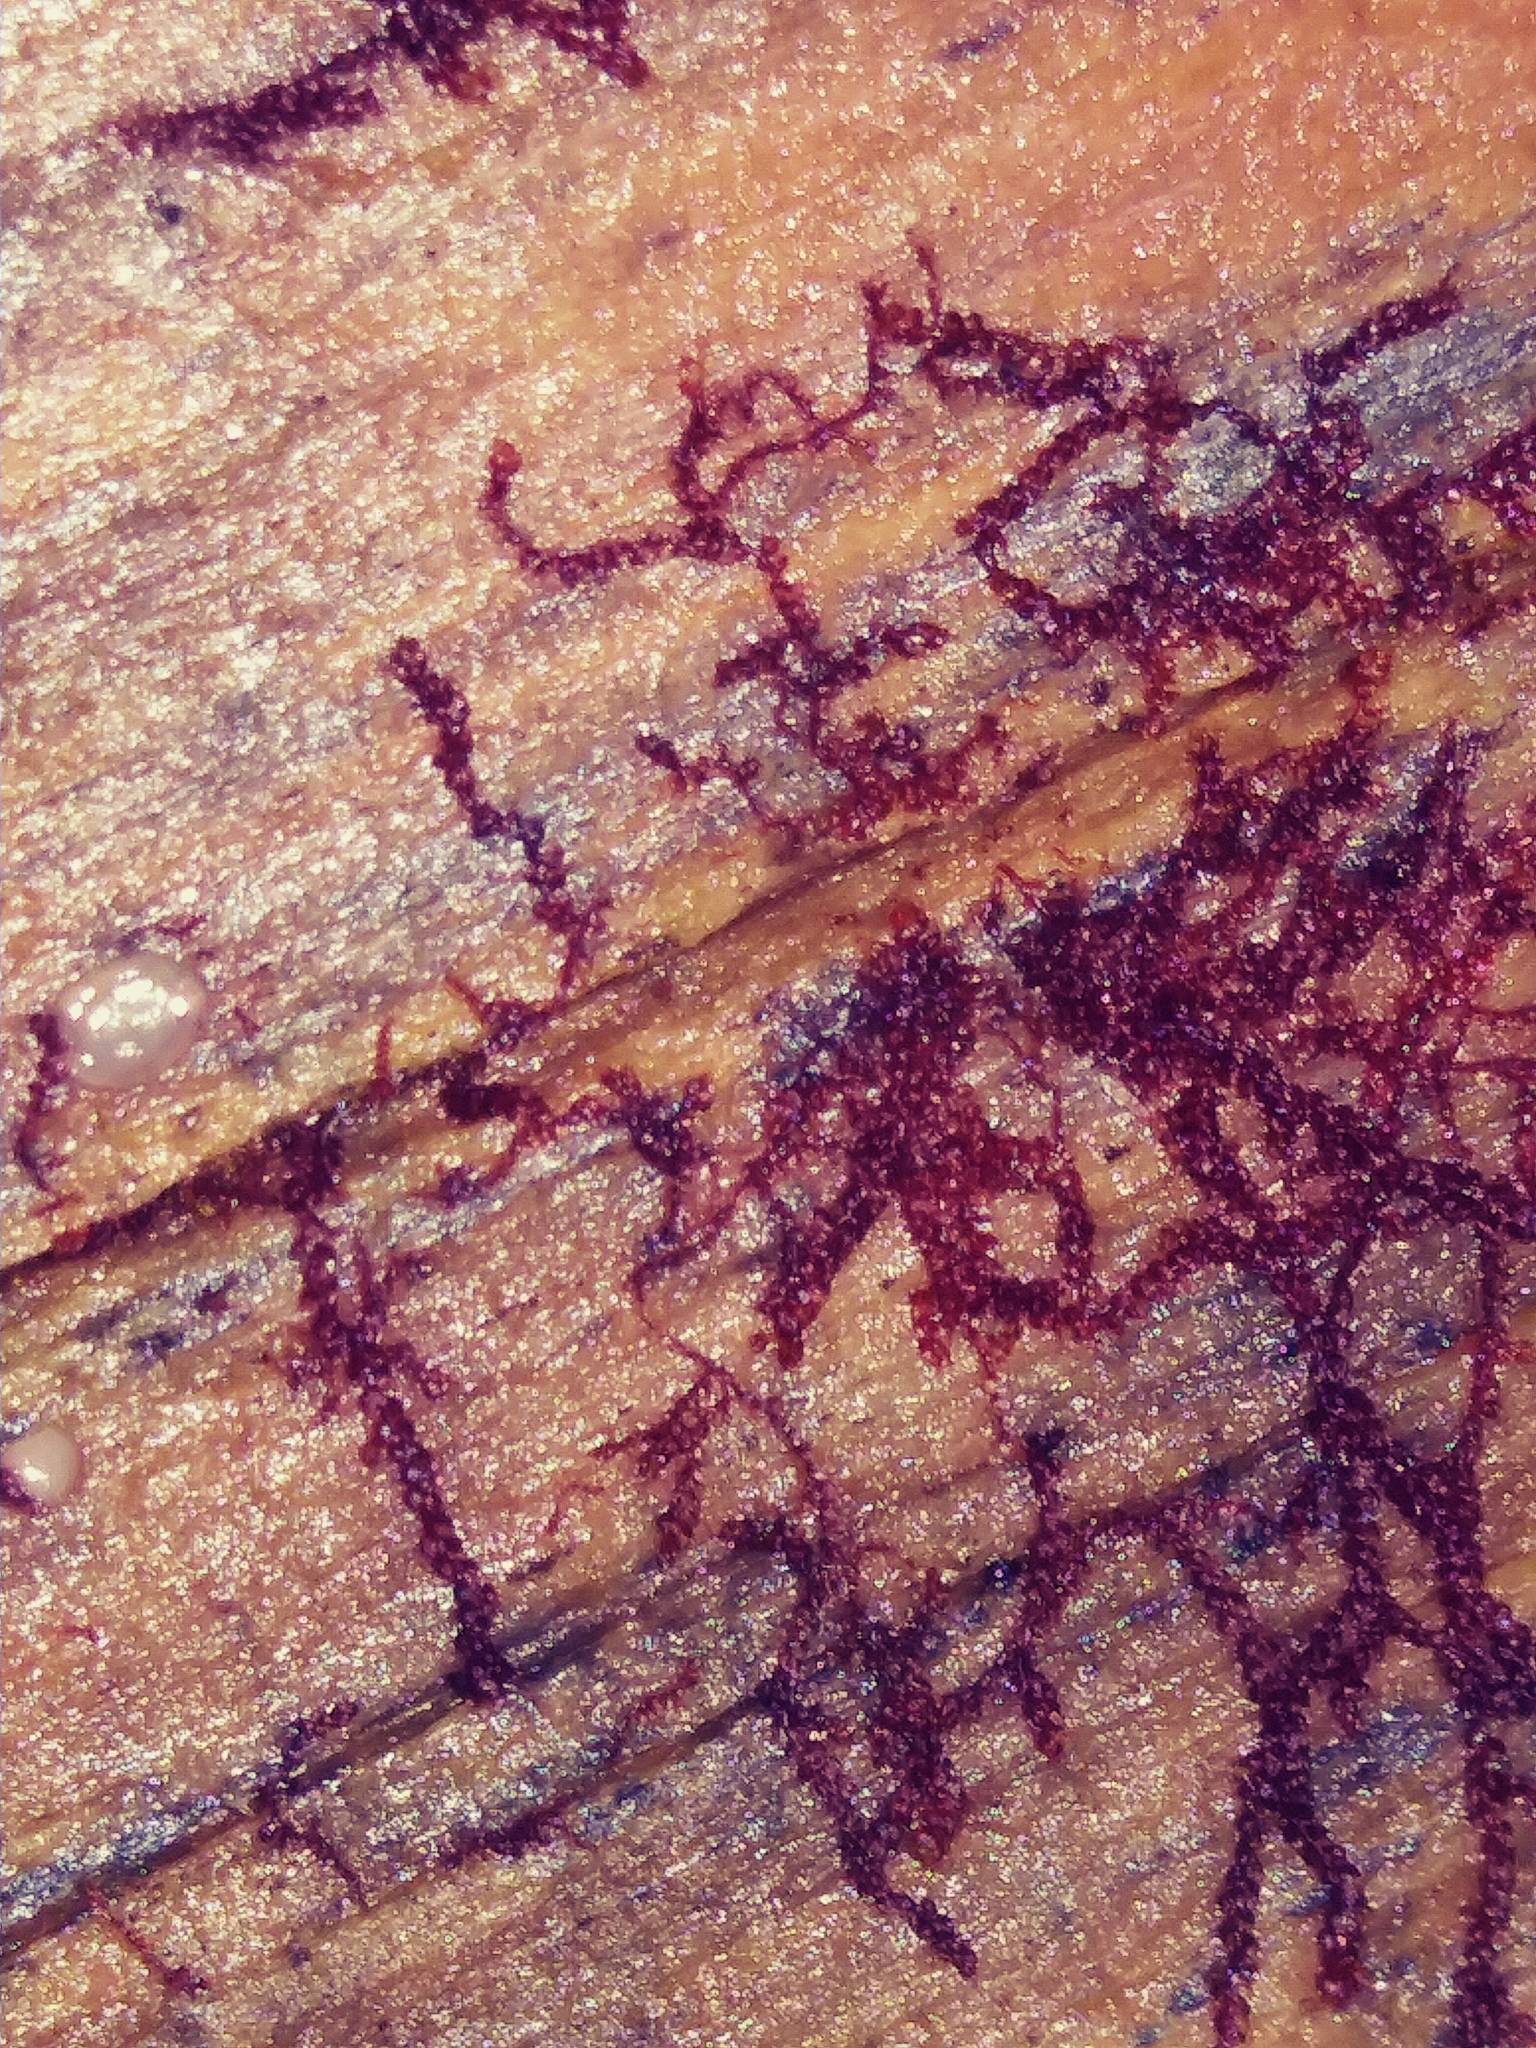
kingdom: Plantae
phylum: Marchantiophyta
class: Jungermanniopsida
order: Jungermanniales
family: Cephaloziaceae
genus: Nowellia
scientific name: Nowellia curvifolia
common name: Wood rustwort
